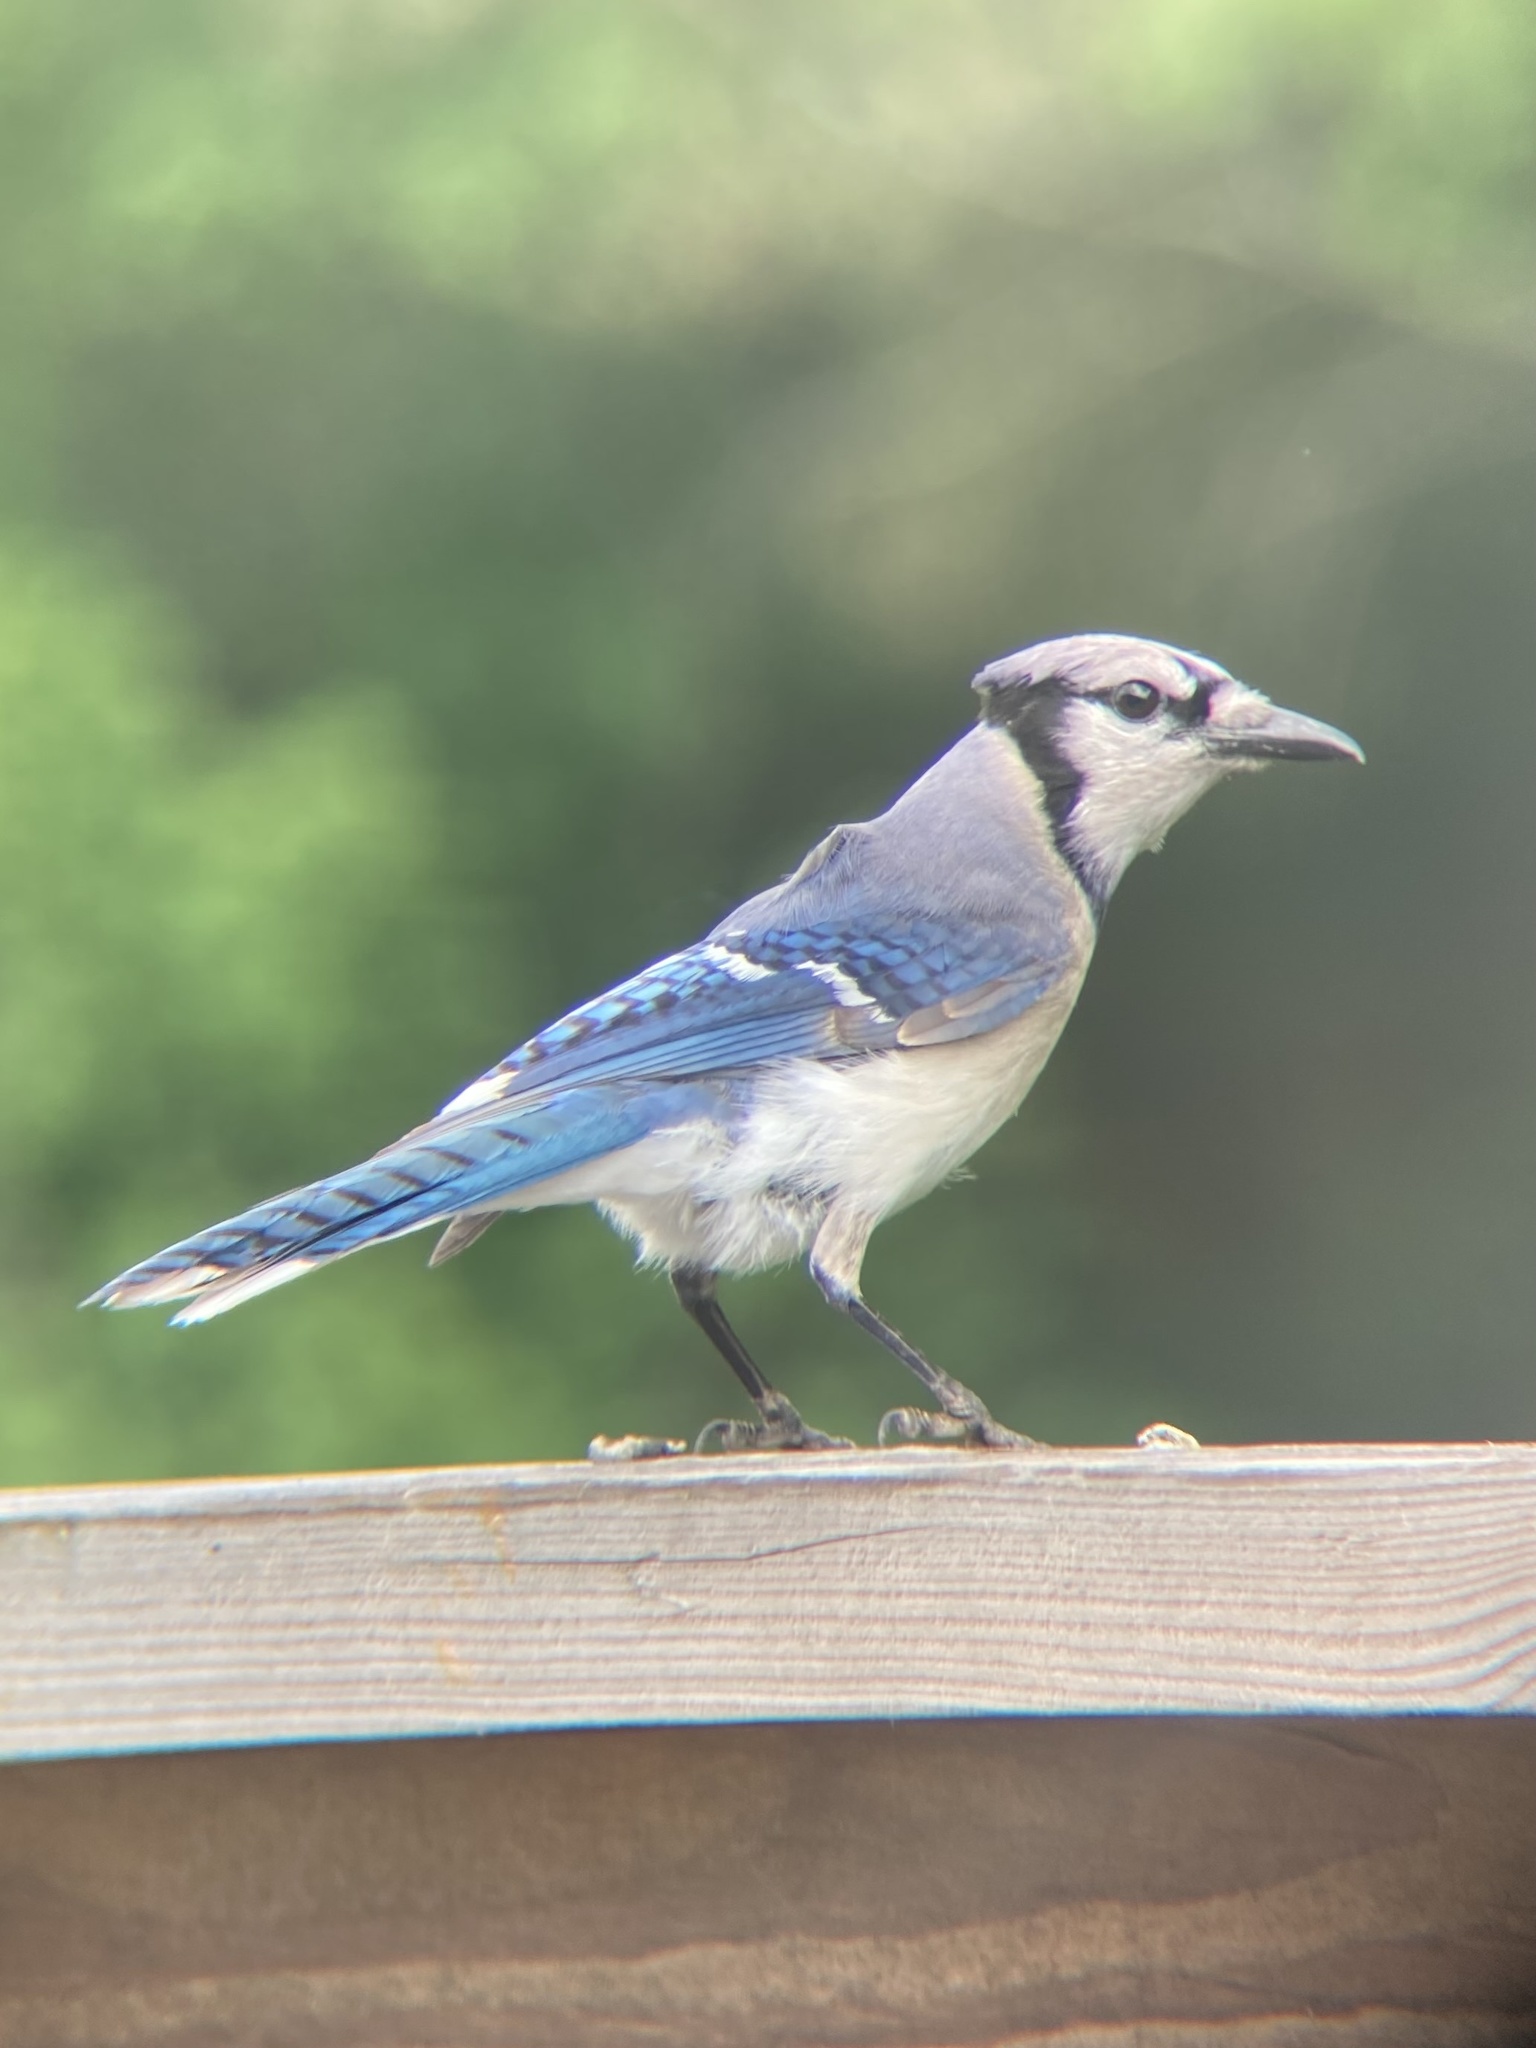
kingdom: Animalia
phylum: Chordata
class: Aves
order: Passeriformes
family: Corvidae
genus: Cyanocitta
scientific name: Cyanocitta cristata
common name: Blue jay
